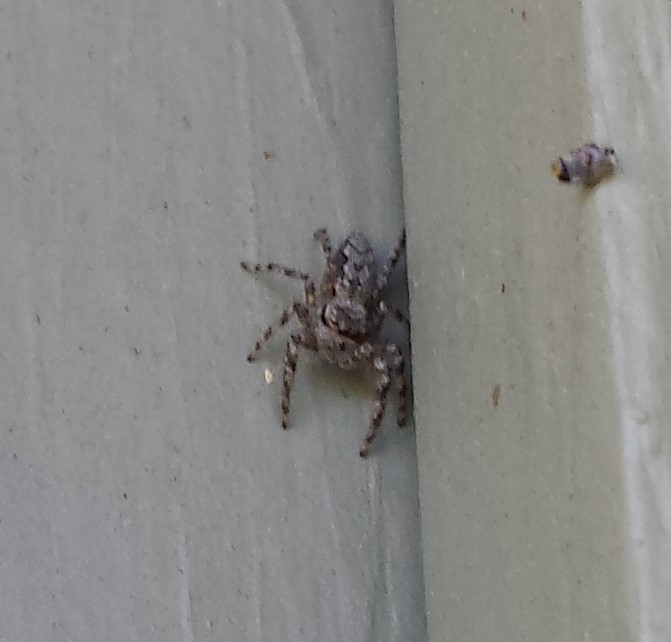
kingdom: Animalia
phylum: Arthropoda
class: Arachnida
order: Araneae
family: Salticidae
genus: Platycryptus
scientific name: Platycryptus undatus
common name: Tan jumping spider
